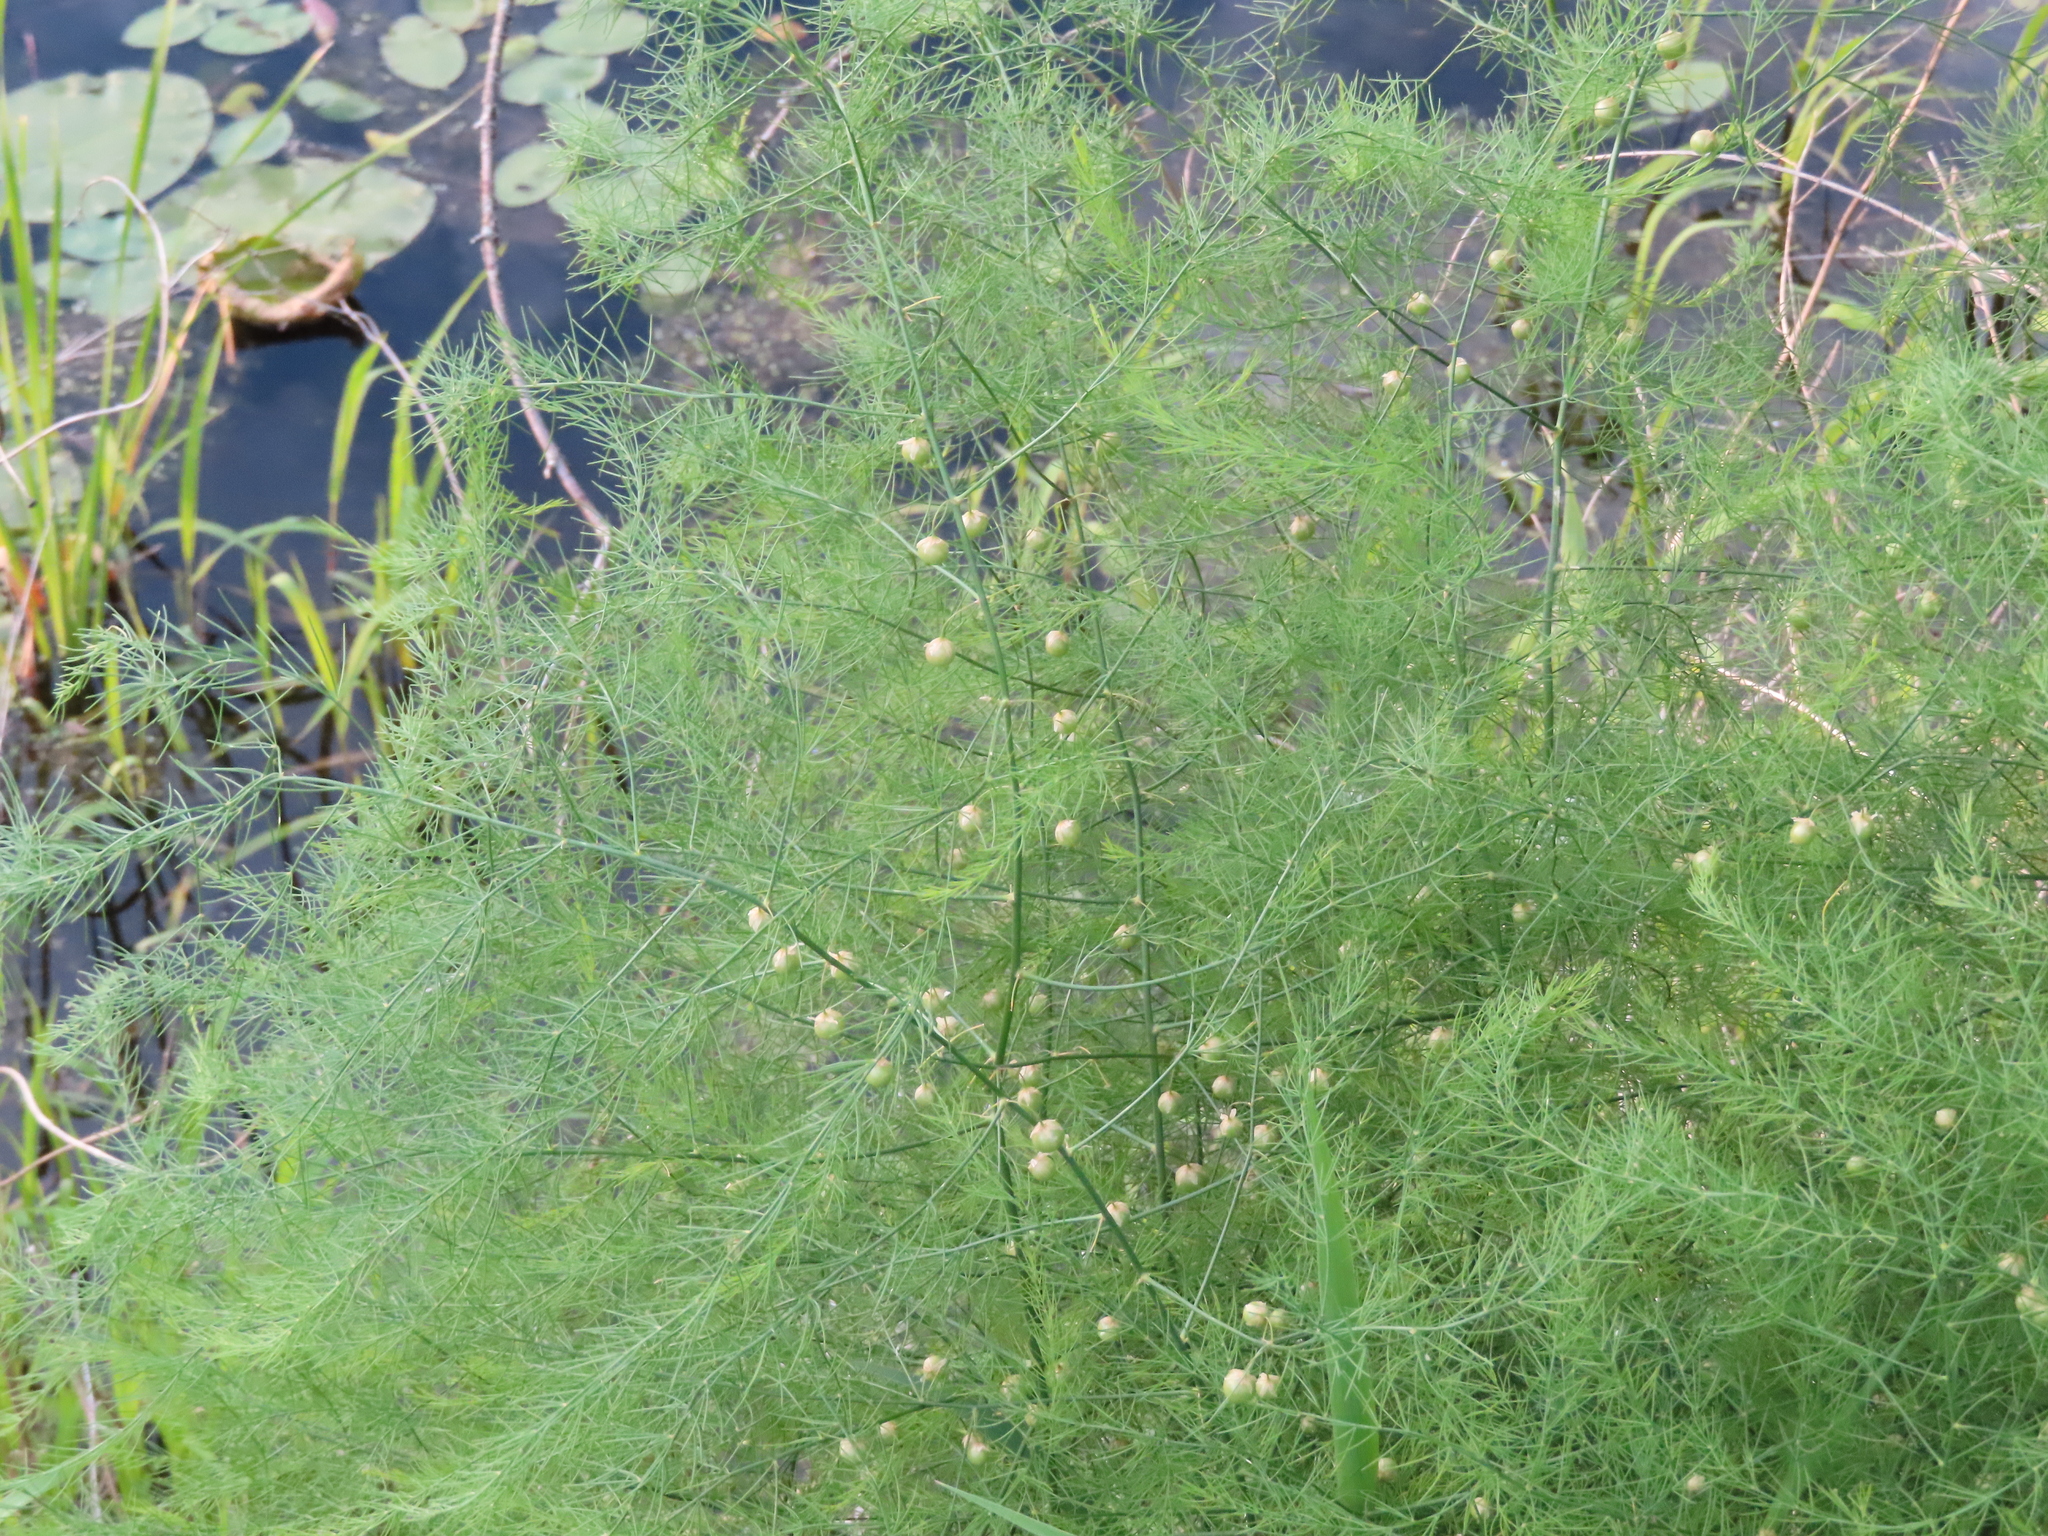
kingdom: Plantae
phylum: Tracheophyta
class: Liliopsida
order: Asparagales
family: Asparagaceae
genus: Asparagus
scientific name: Asparagus officinalis
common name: Garden asparagus
